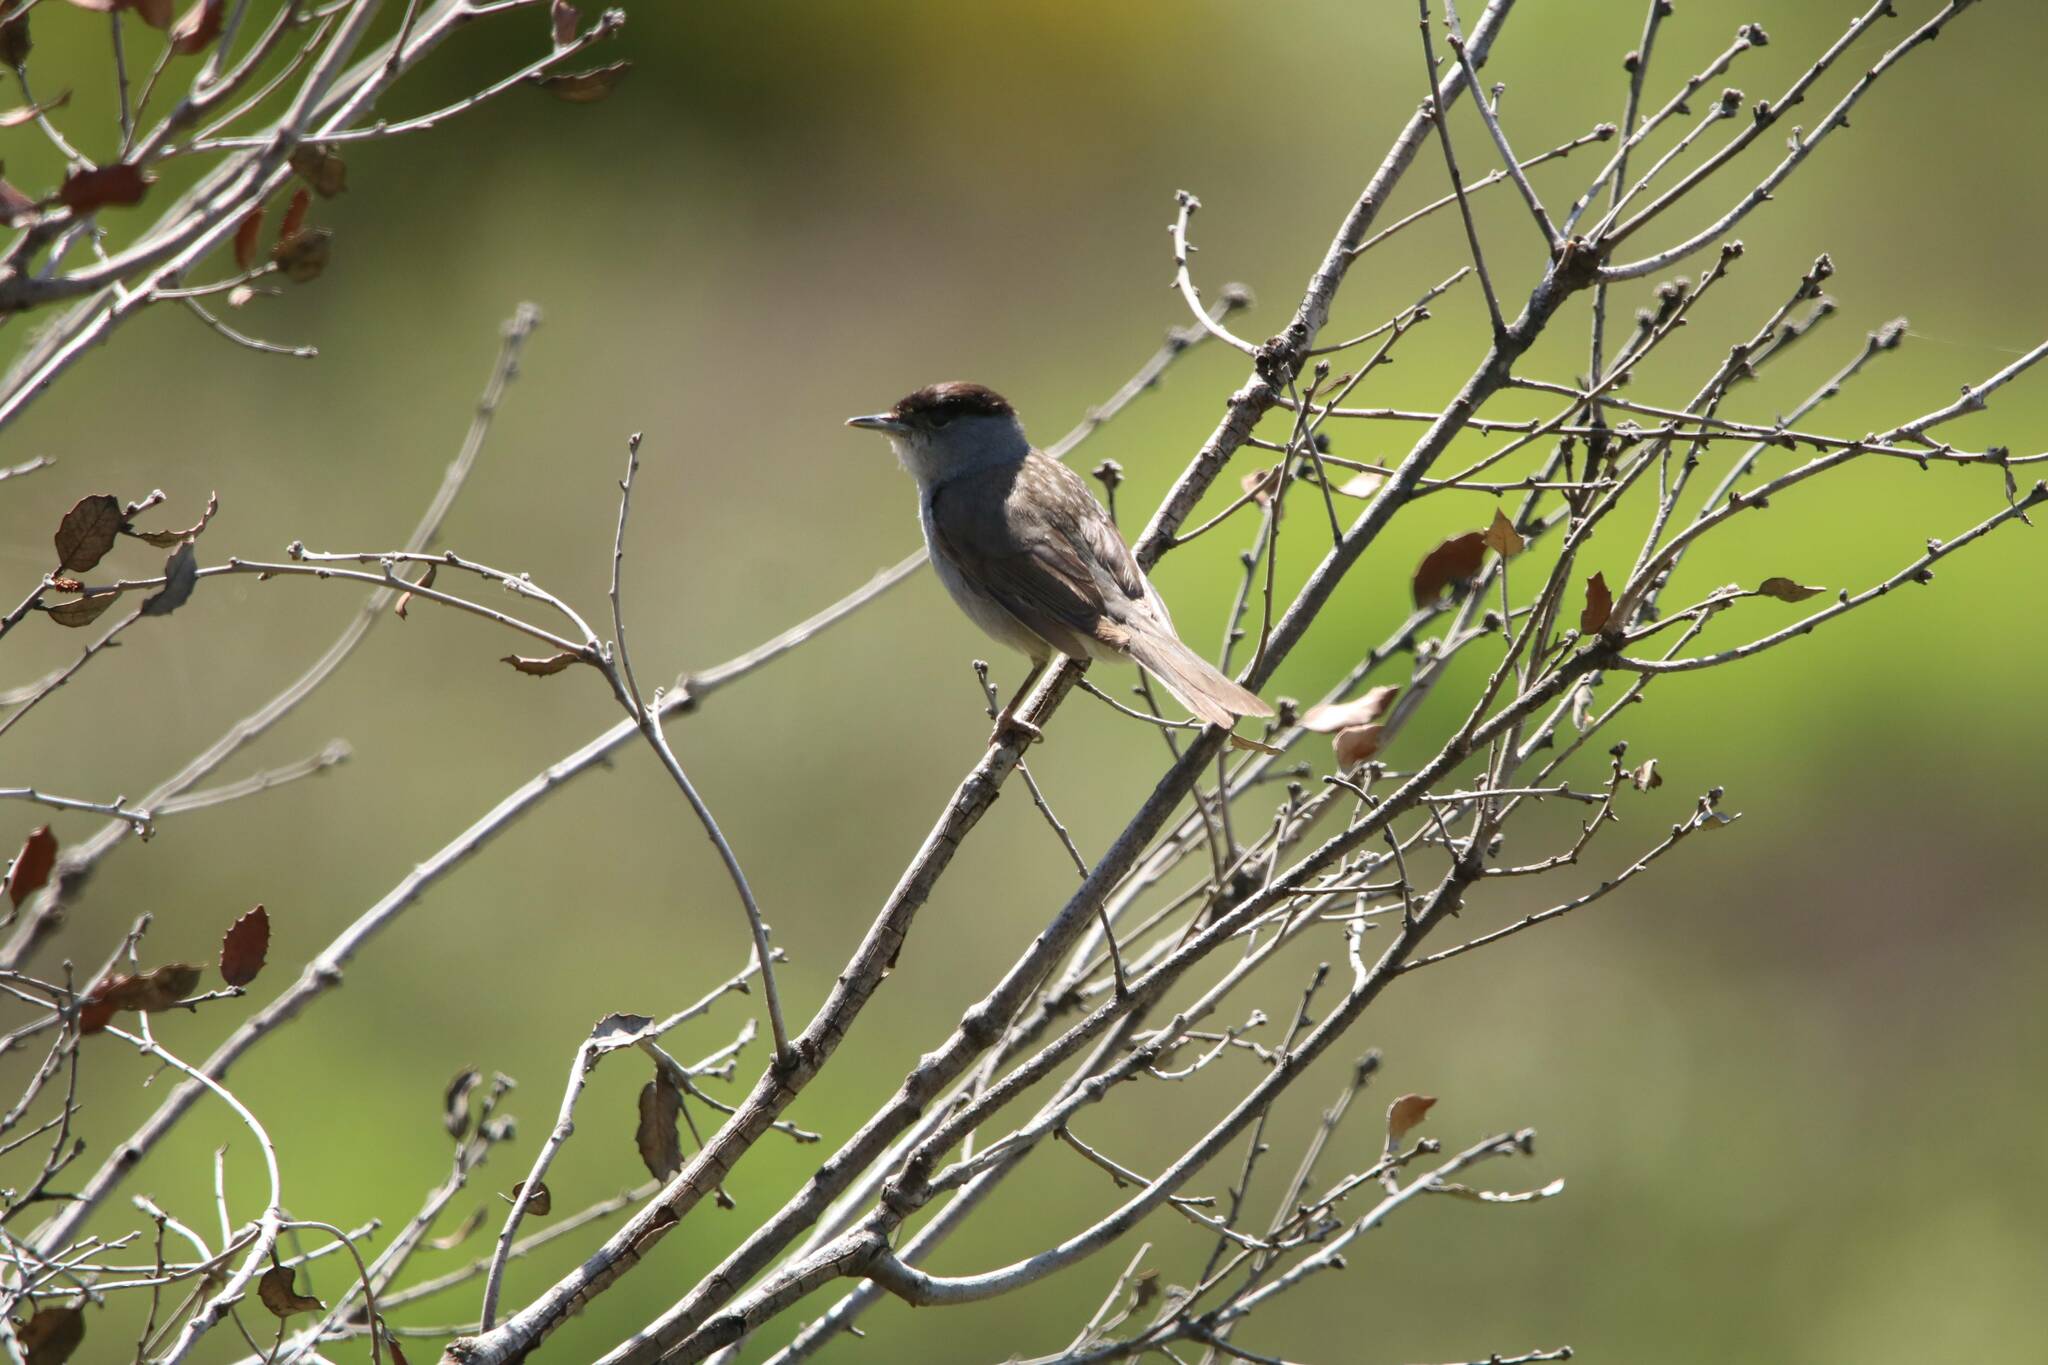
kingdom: Animalia
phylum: Chordata
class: Aves
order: Passeriformes
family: Sylviidae
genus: Sylvia
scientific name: Sylvia atricapilla
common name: Eurasian blackcap
